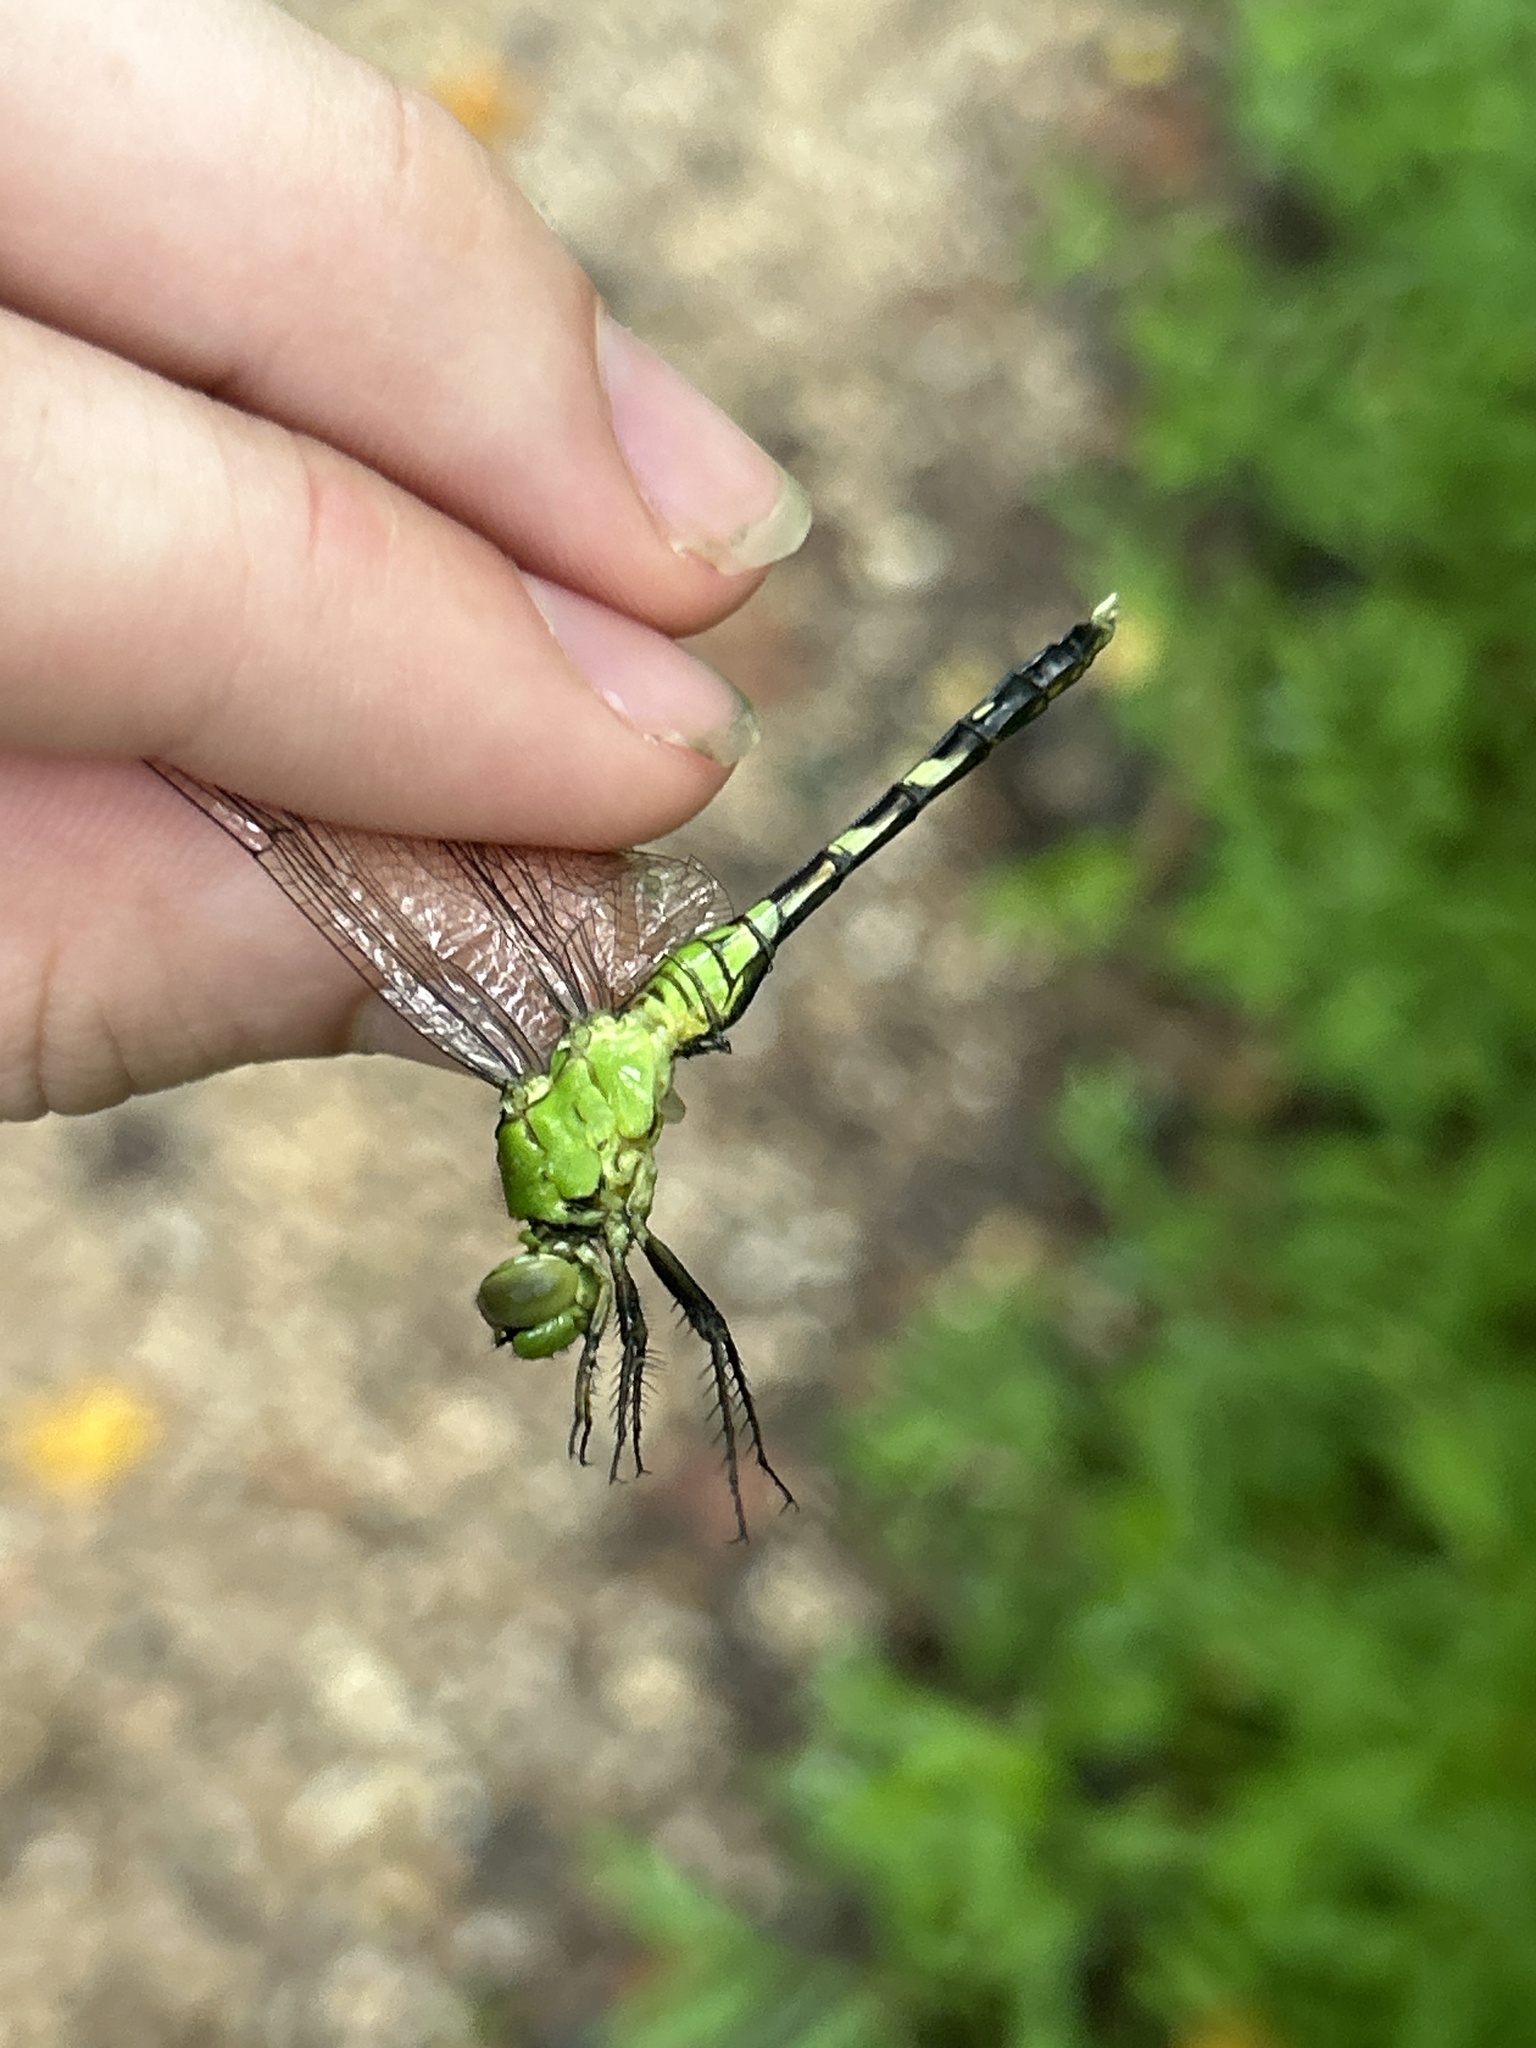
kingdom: Animalia
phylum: Arthropoda
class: Insecta
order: Odonata
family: Libellulidae
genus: Erythemis
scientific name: Erythemis simplicicollis
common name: Eastern pondhawk
